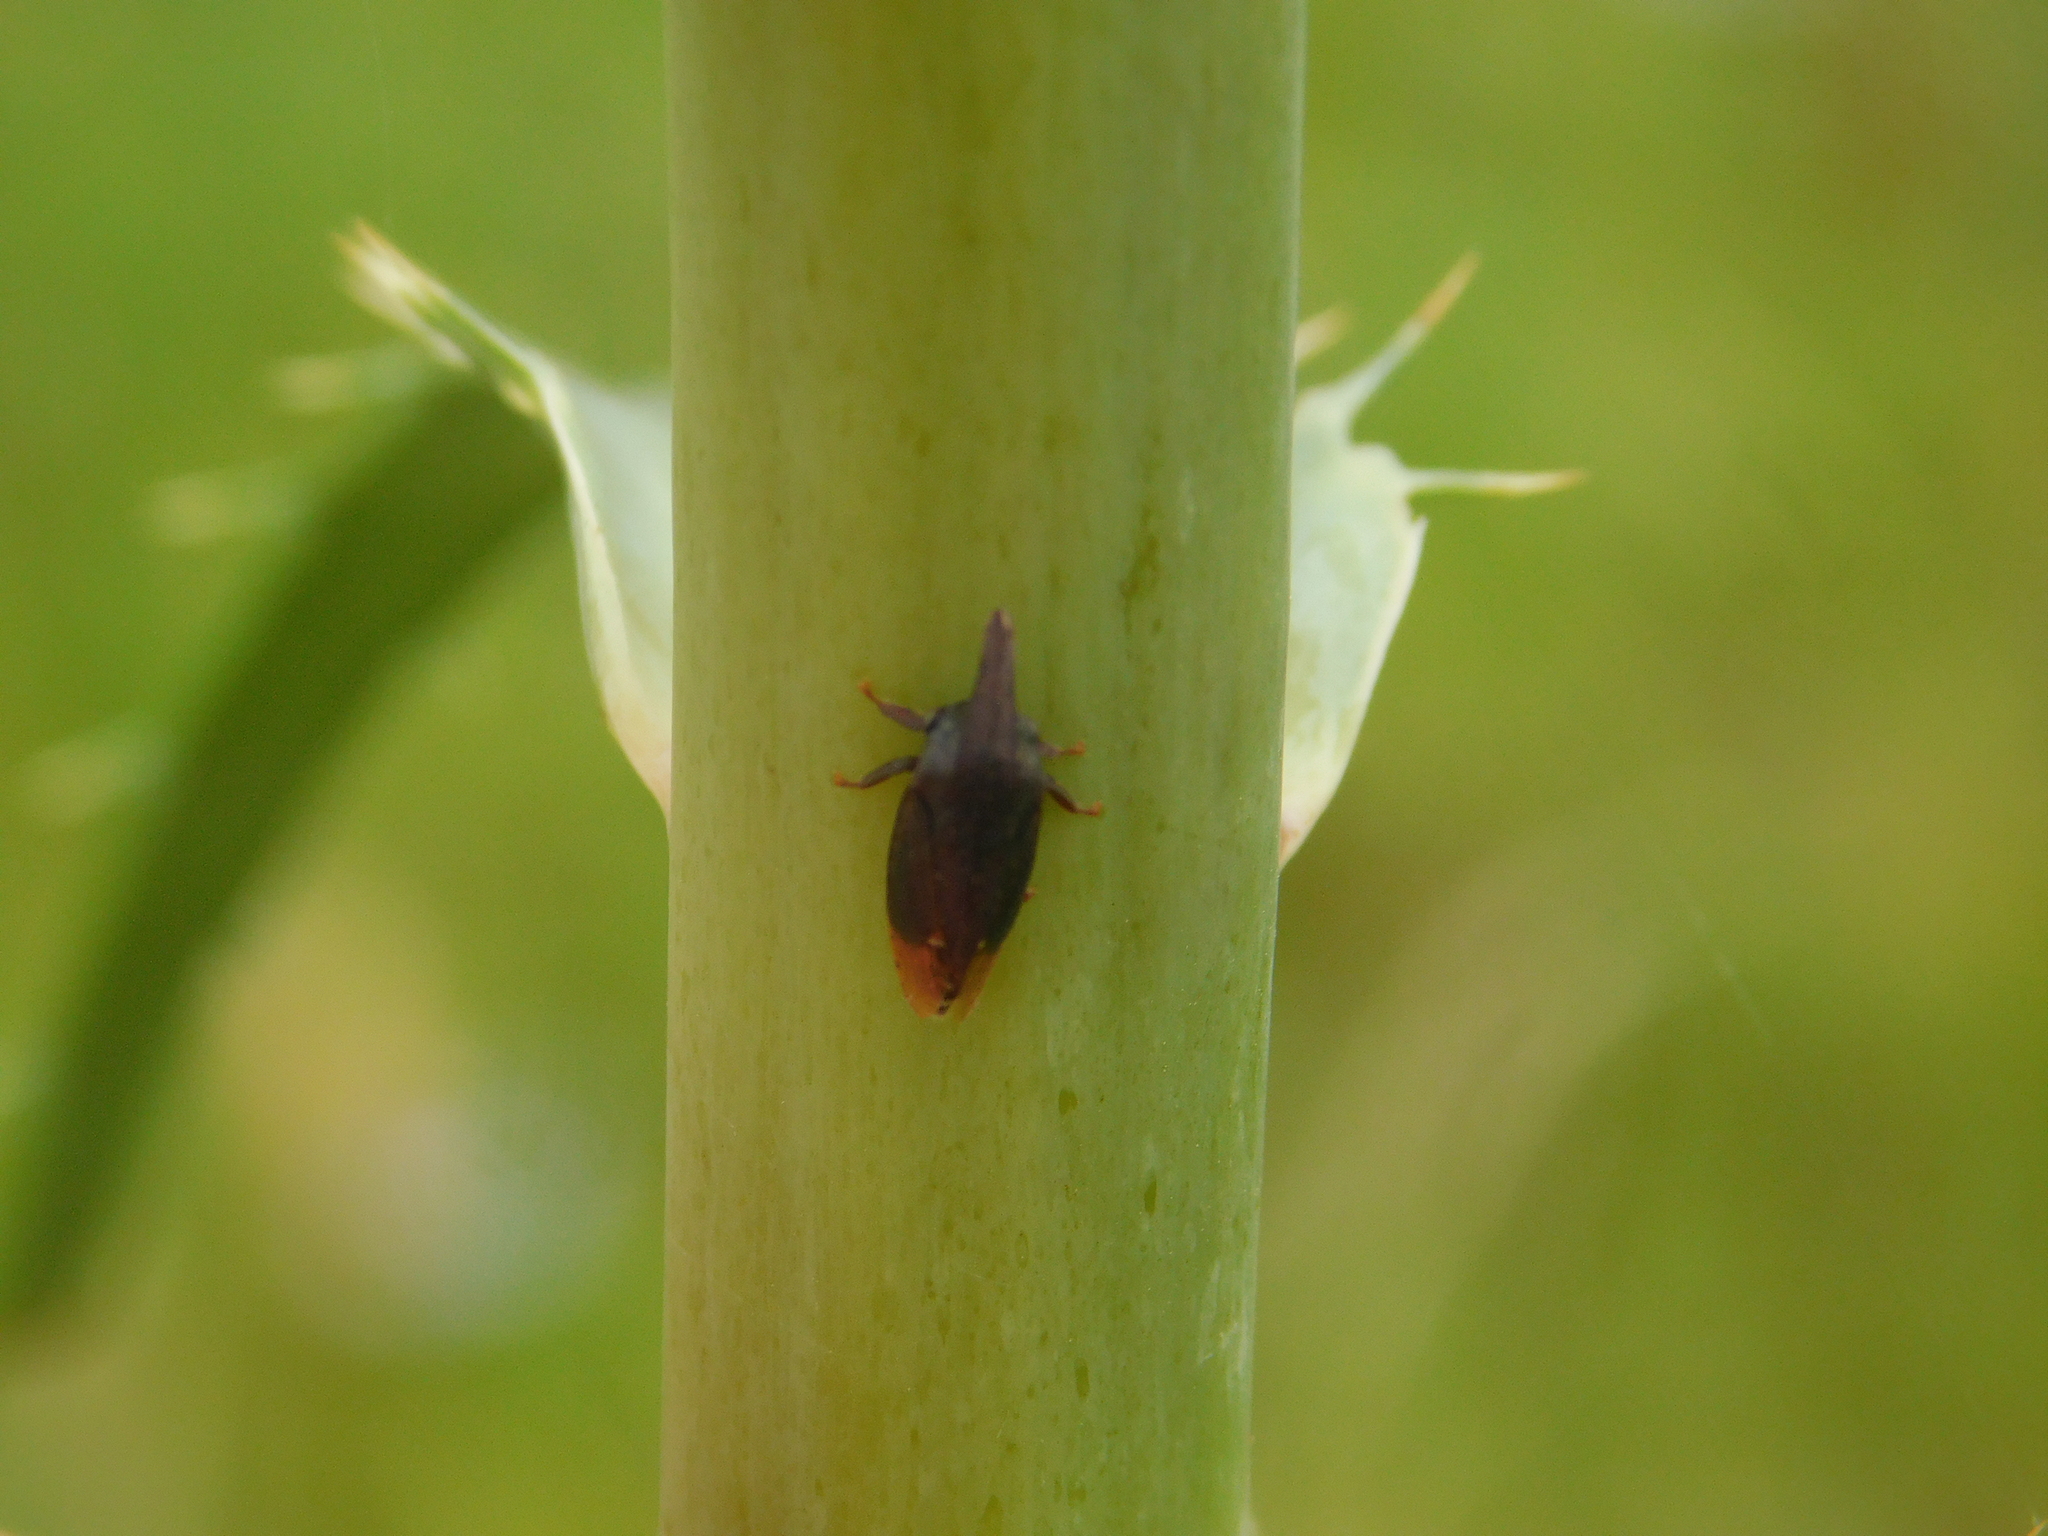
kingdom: Animalia
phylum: Arthropoda
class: Insecta
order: Hemiptera
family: Membracidae
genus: Kronides
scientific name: Kronides incumbens
